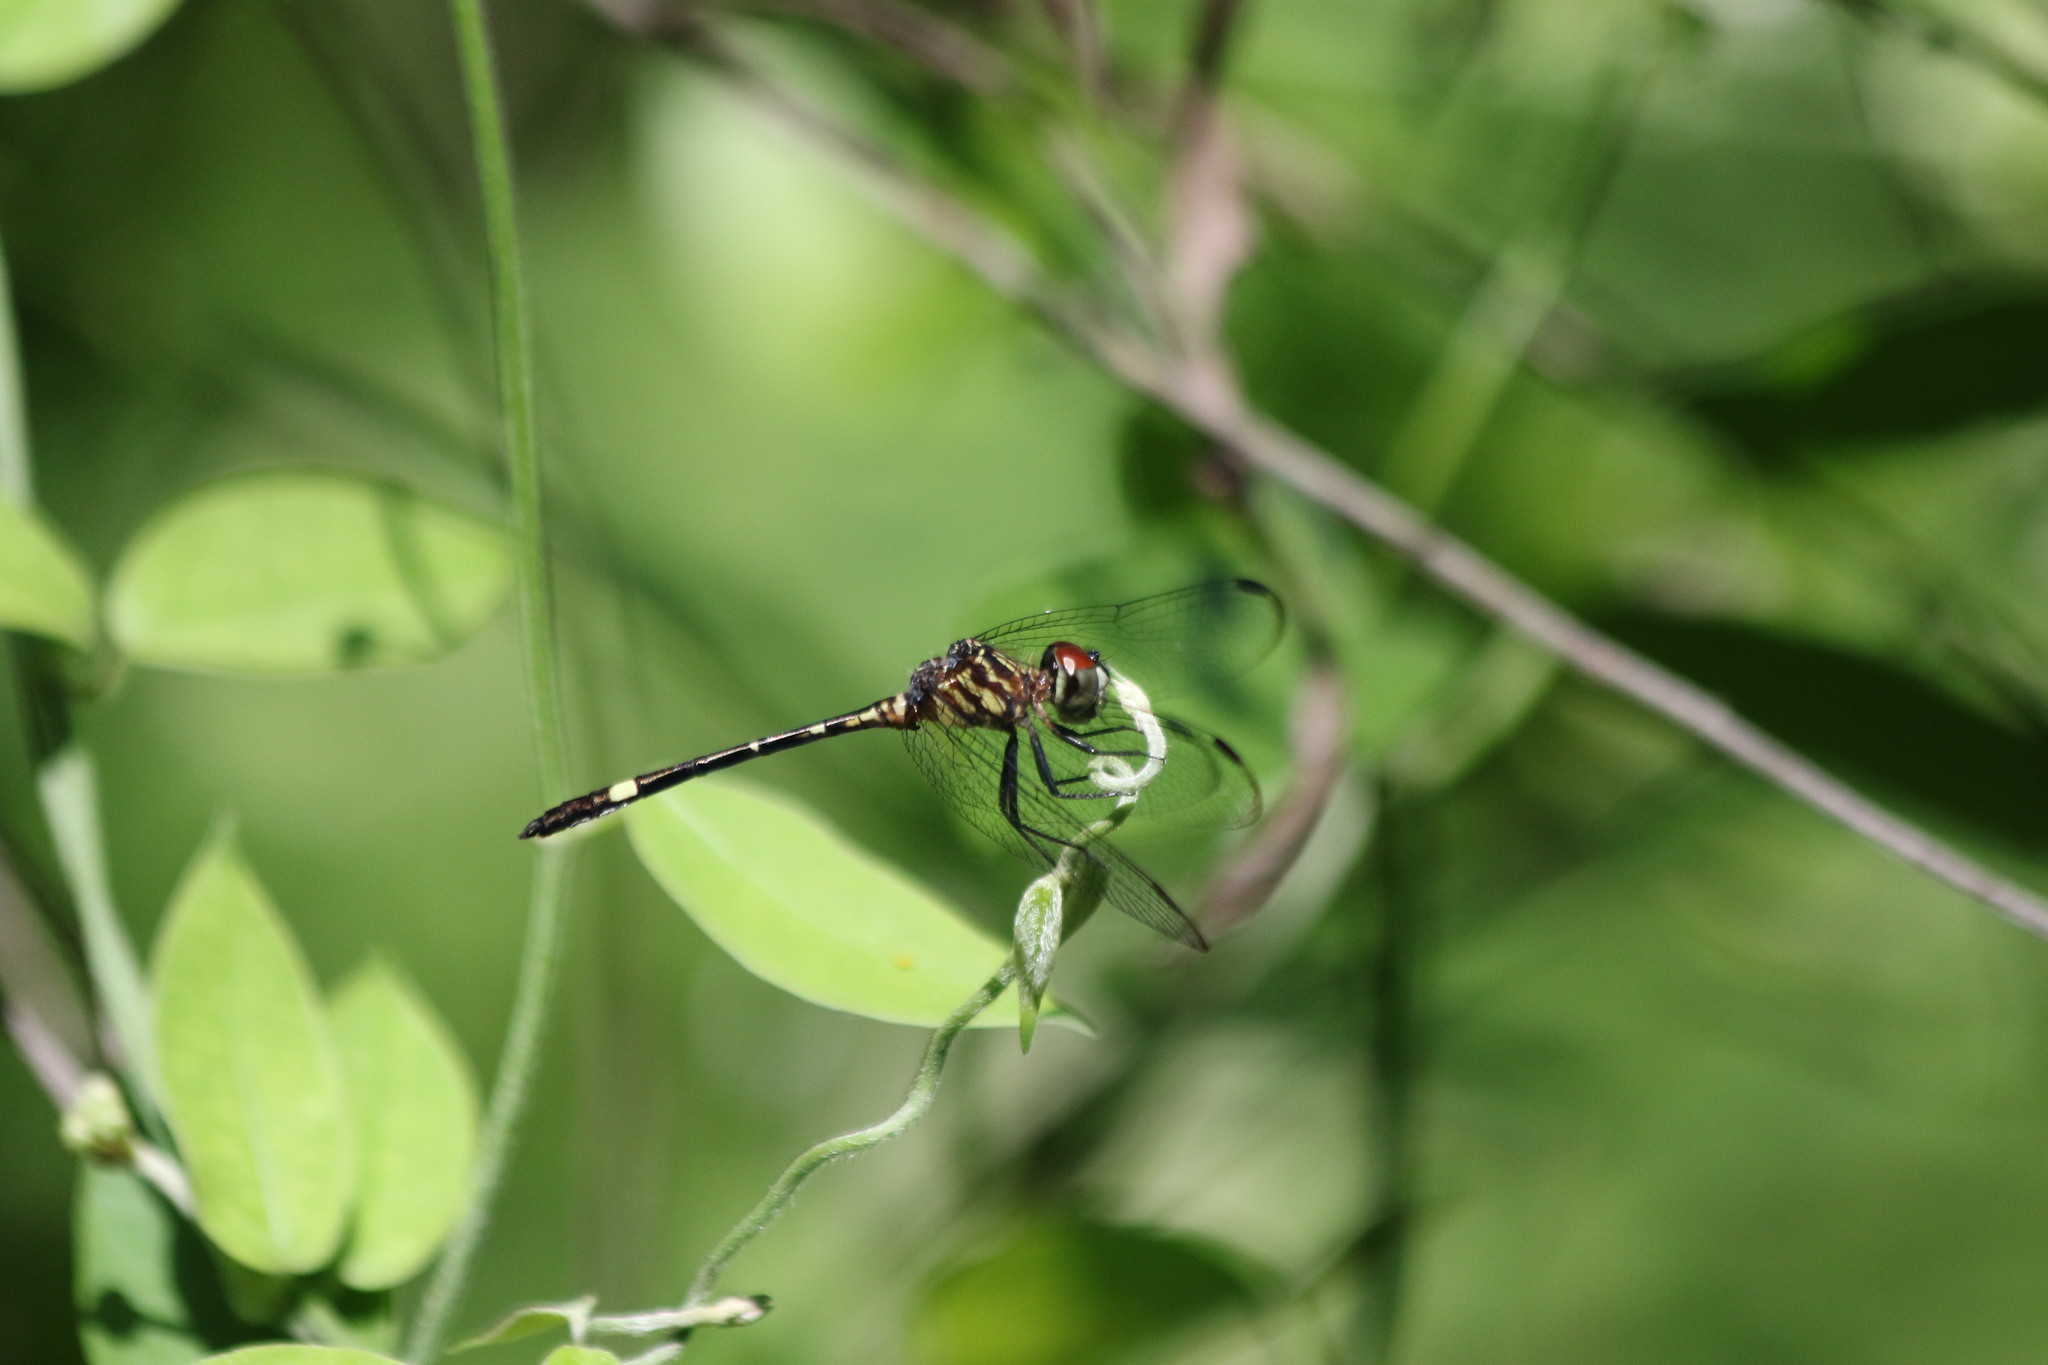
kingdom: Animalia
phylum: Arthropoda
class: Insecta
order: Odonata
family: Libellulidae
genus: Micrathyria
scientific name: Micrathyria didyma
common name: Three-striped dasher
